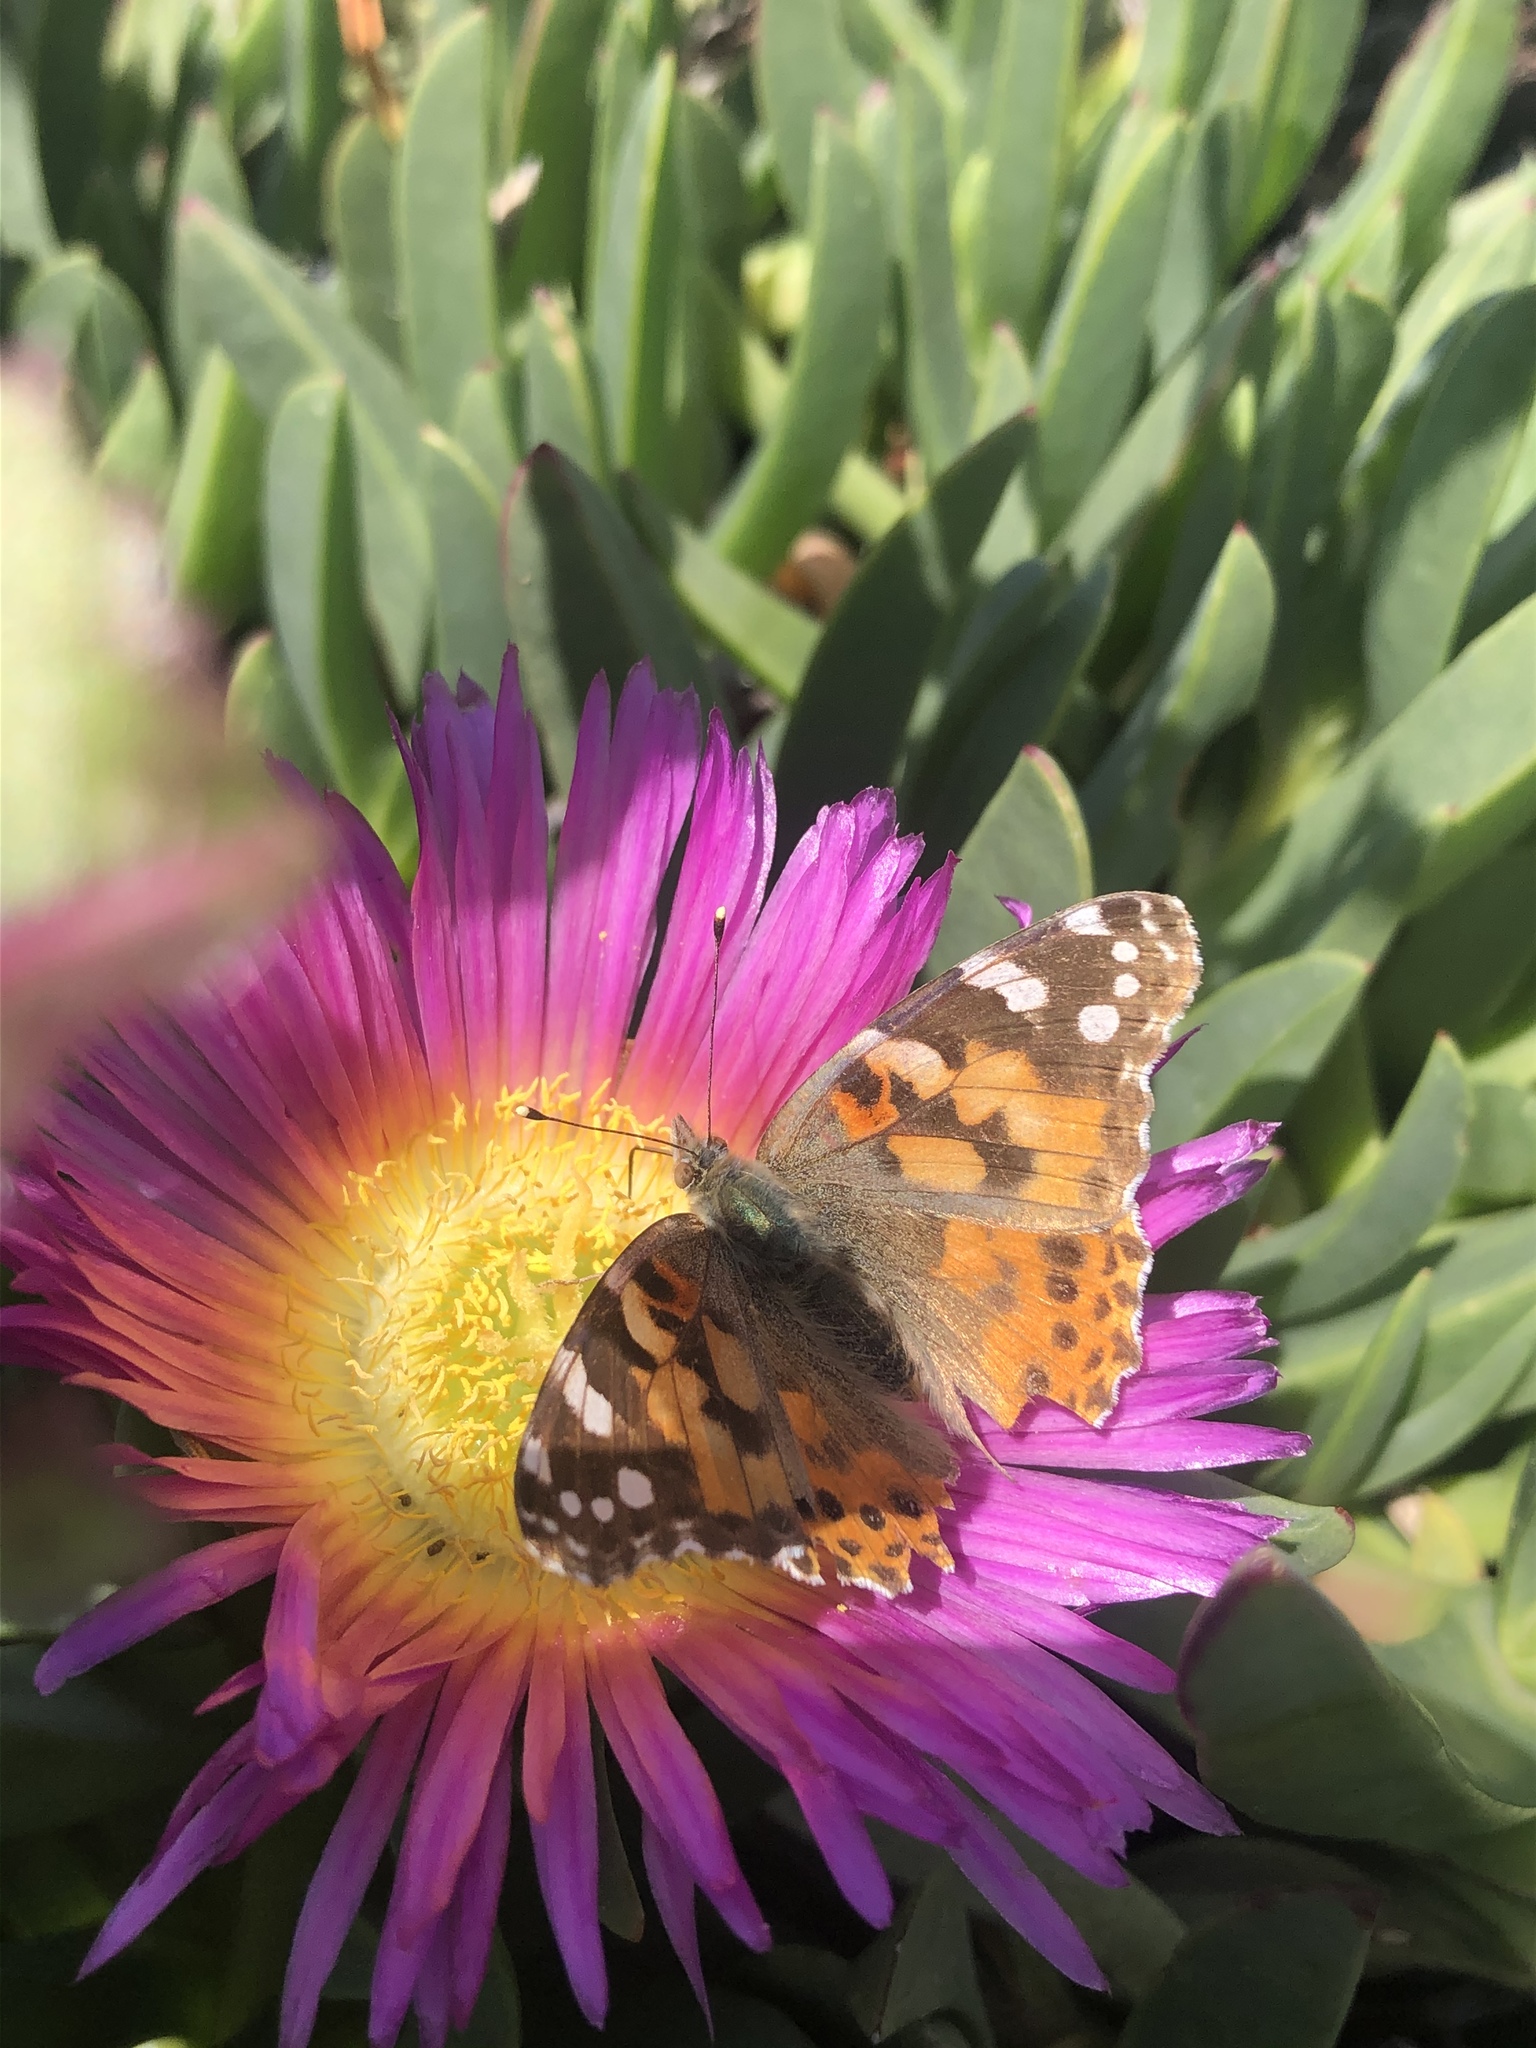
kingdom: Animalia
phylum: Arthropoda
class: Insecta
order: Lepidoptera
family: Nymphalidae
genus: Vanessa
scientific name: Vanessa cardui
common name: Painted lady
